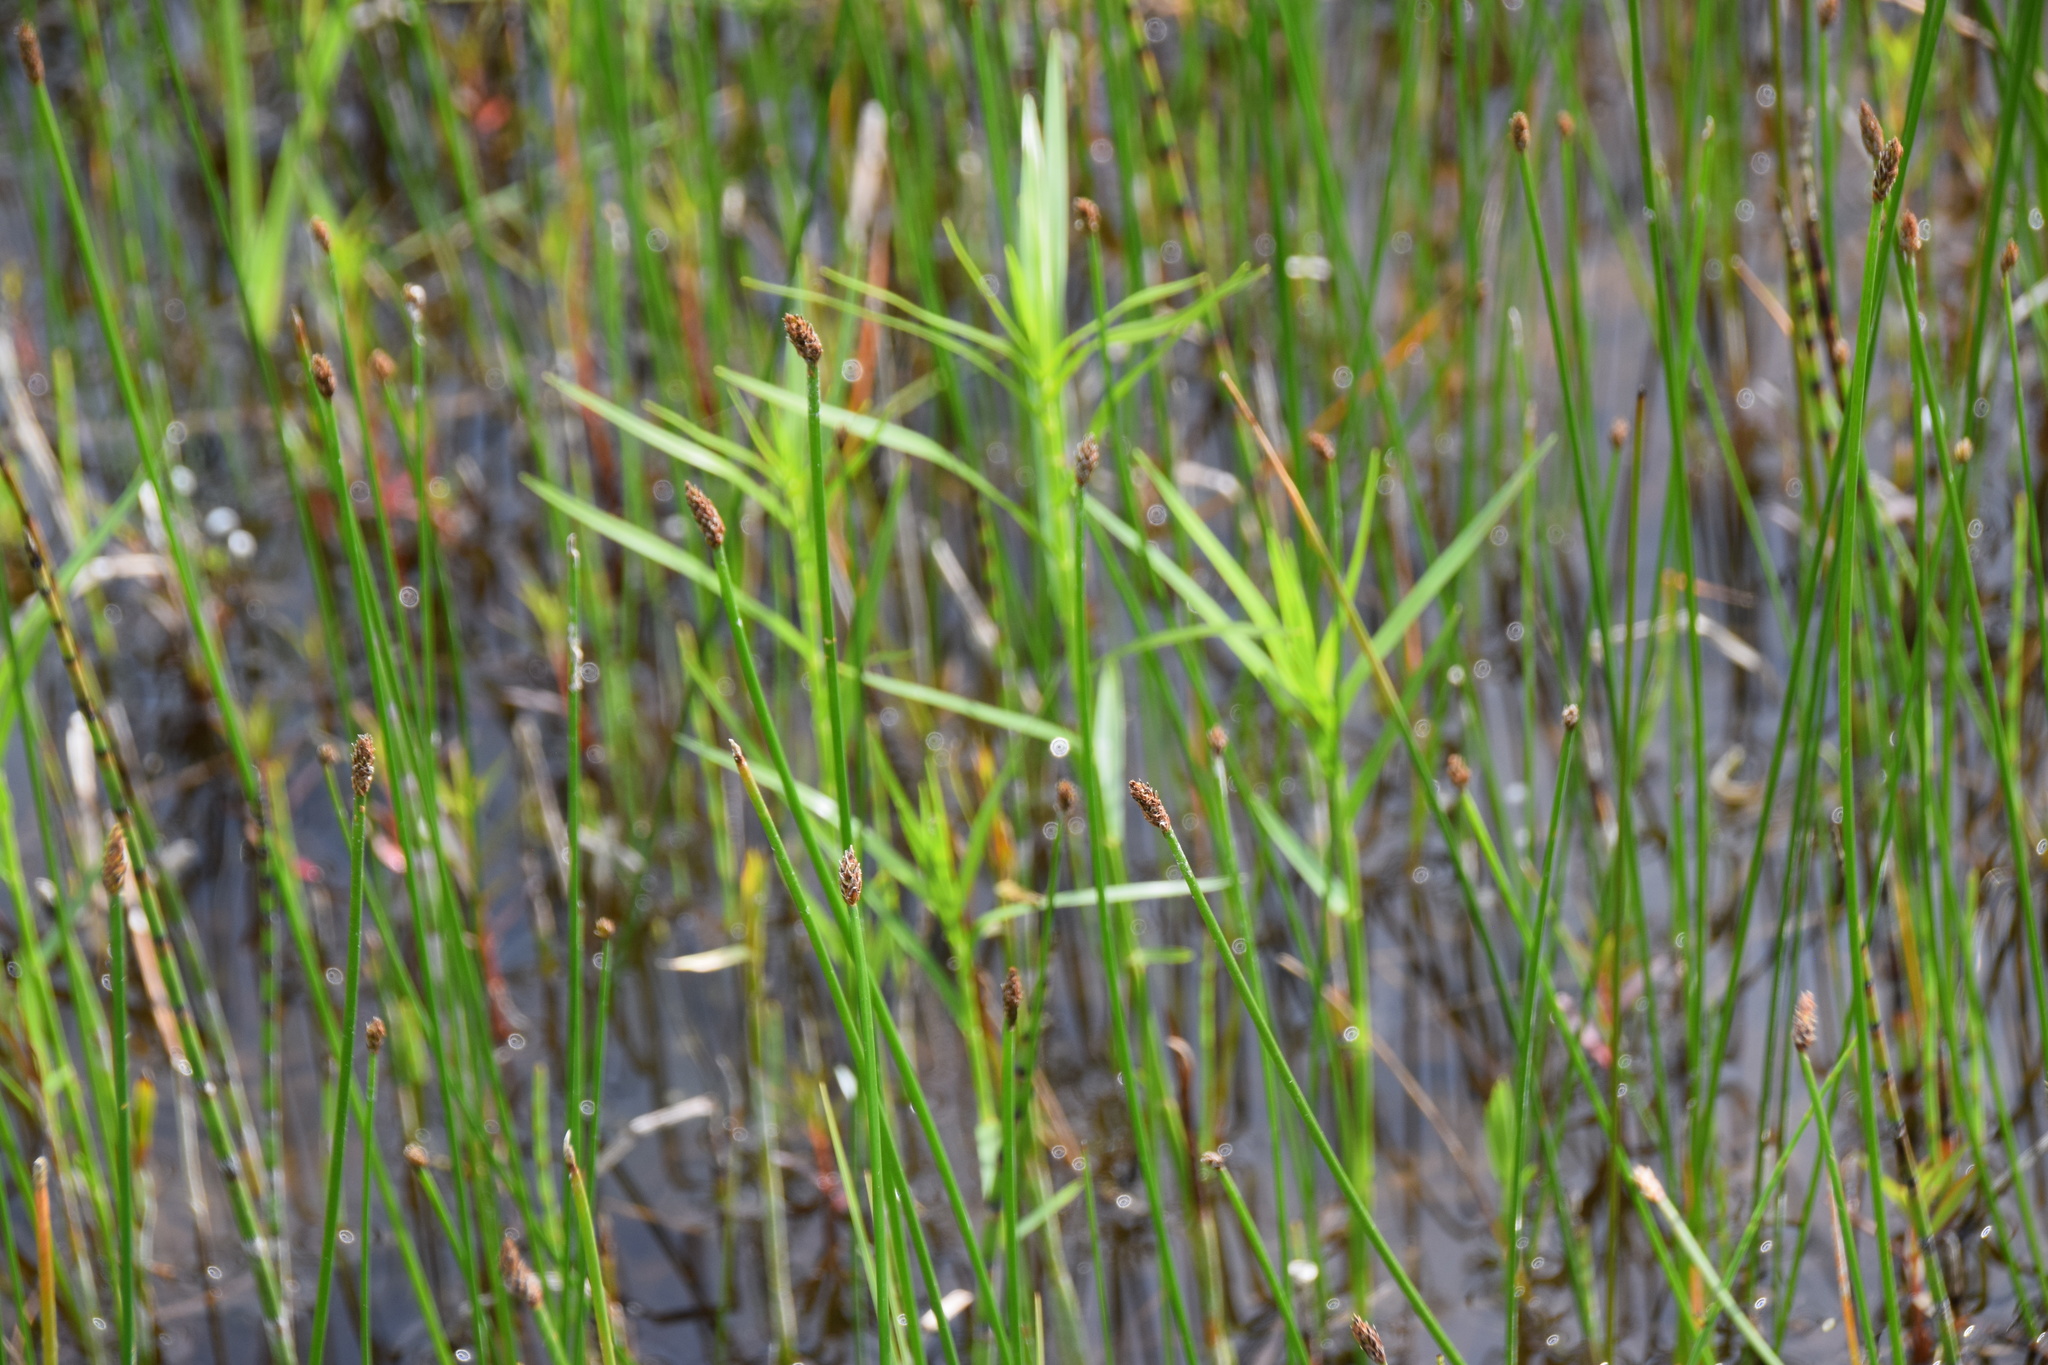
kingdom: Plantae
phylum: Tracheophyta
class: Liliopsida
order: Poales
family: Cyperaceae
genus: Dulichium
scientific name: Dulichium arundinaceum
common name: Three-way sedge
